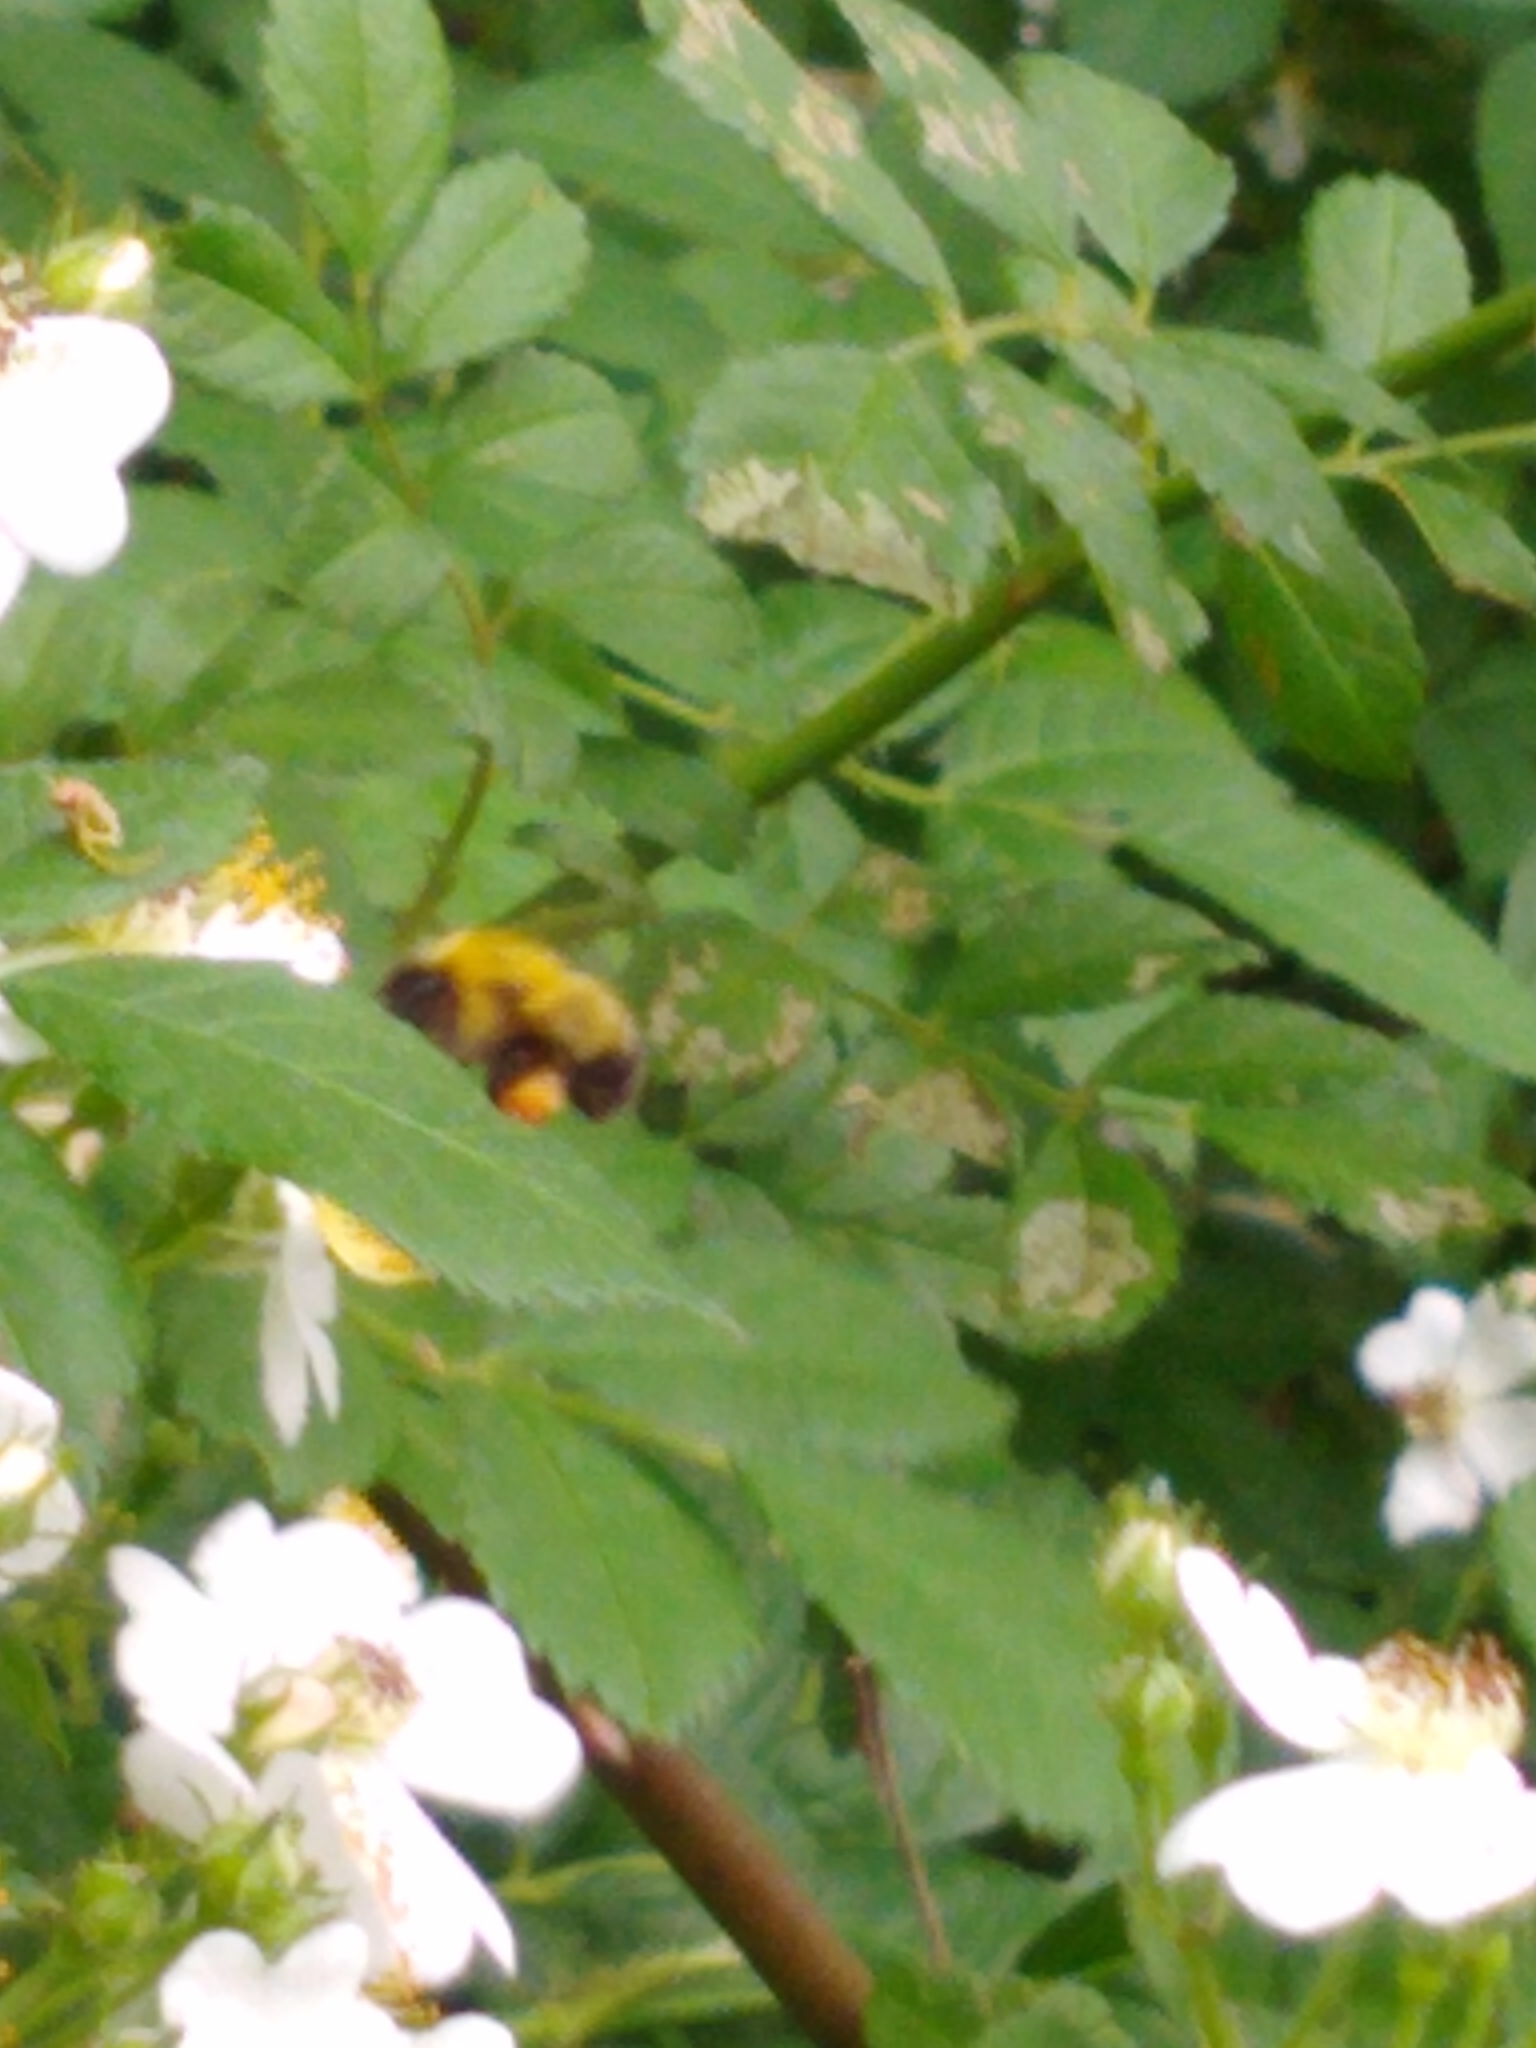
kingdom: Animalia
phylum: Arthropoda
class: Insecta
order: Hymenoptera
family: Apidae
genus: Bombus
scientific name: Bombus perplexus
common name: Confusing bumble bee
